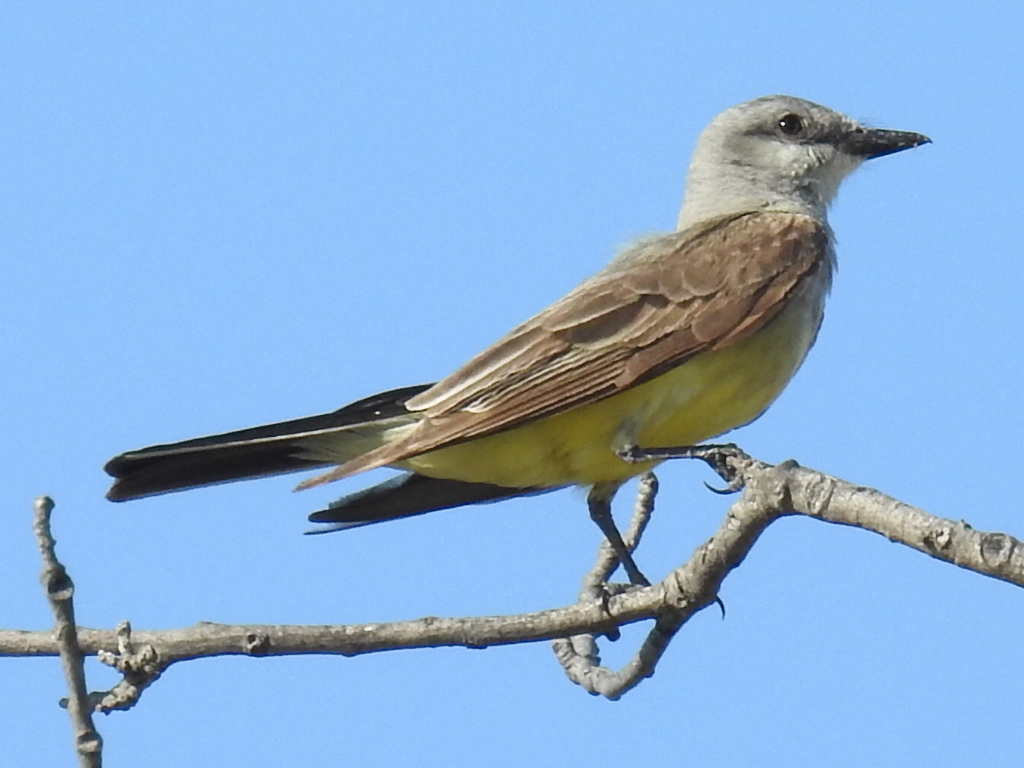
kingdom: Animalia
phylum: Chordata
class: Aves
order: Passeriformes
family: Tyrannidae
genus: Tyrannus
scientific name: Tyrannus verticalis
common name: Western kingbird
